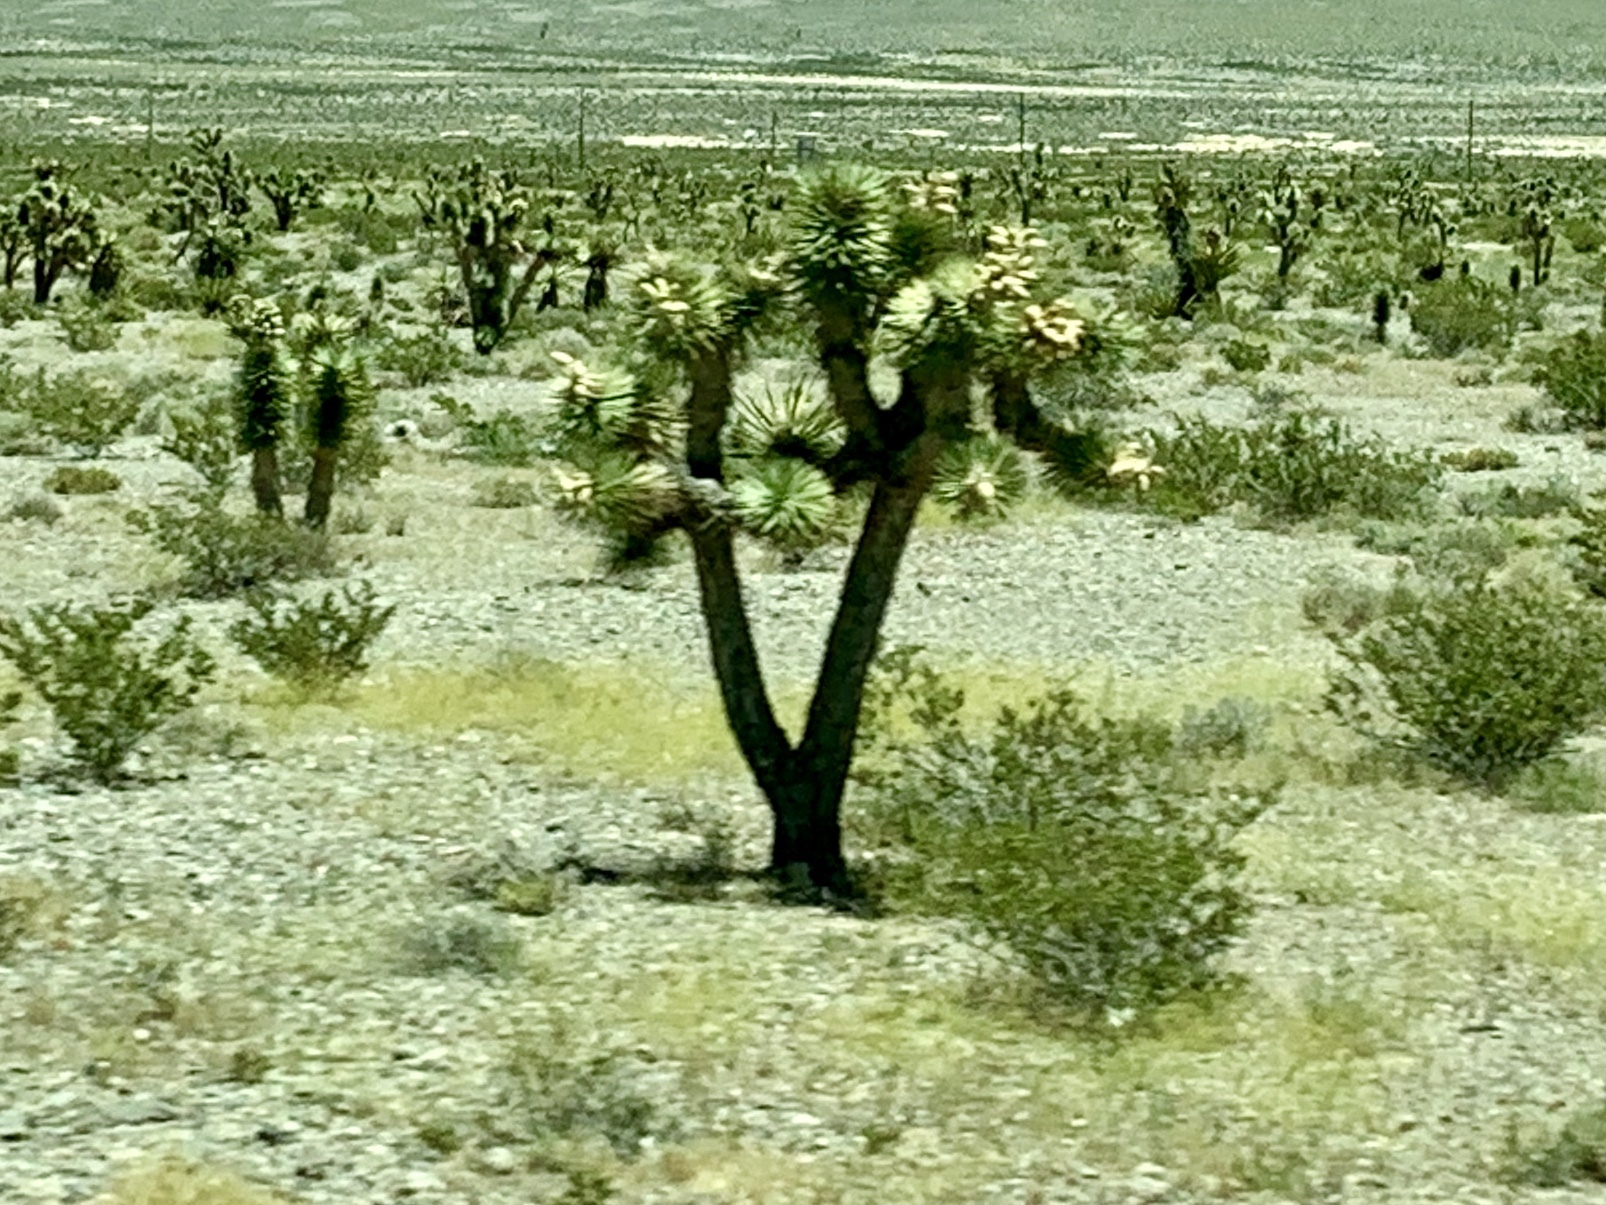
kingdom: Plantae
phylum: Tracheophyta
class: Liliopsida
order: Asparagales
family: Asparagaceae
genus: Yucca
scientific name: Yucca brevifolia
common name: Joshua tree
